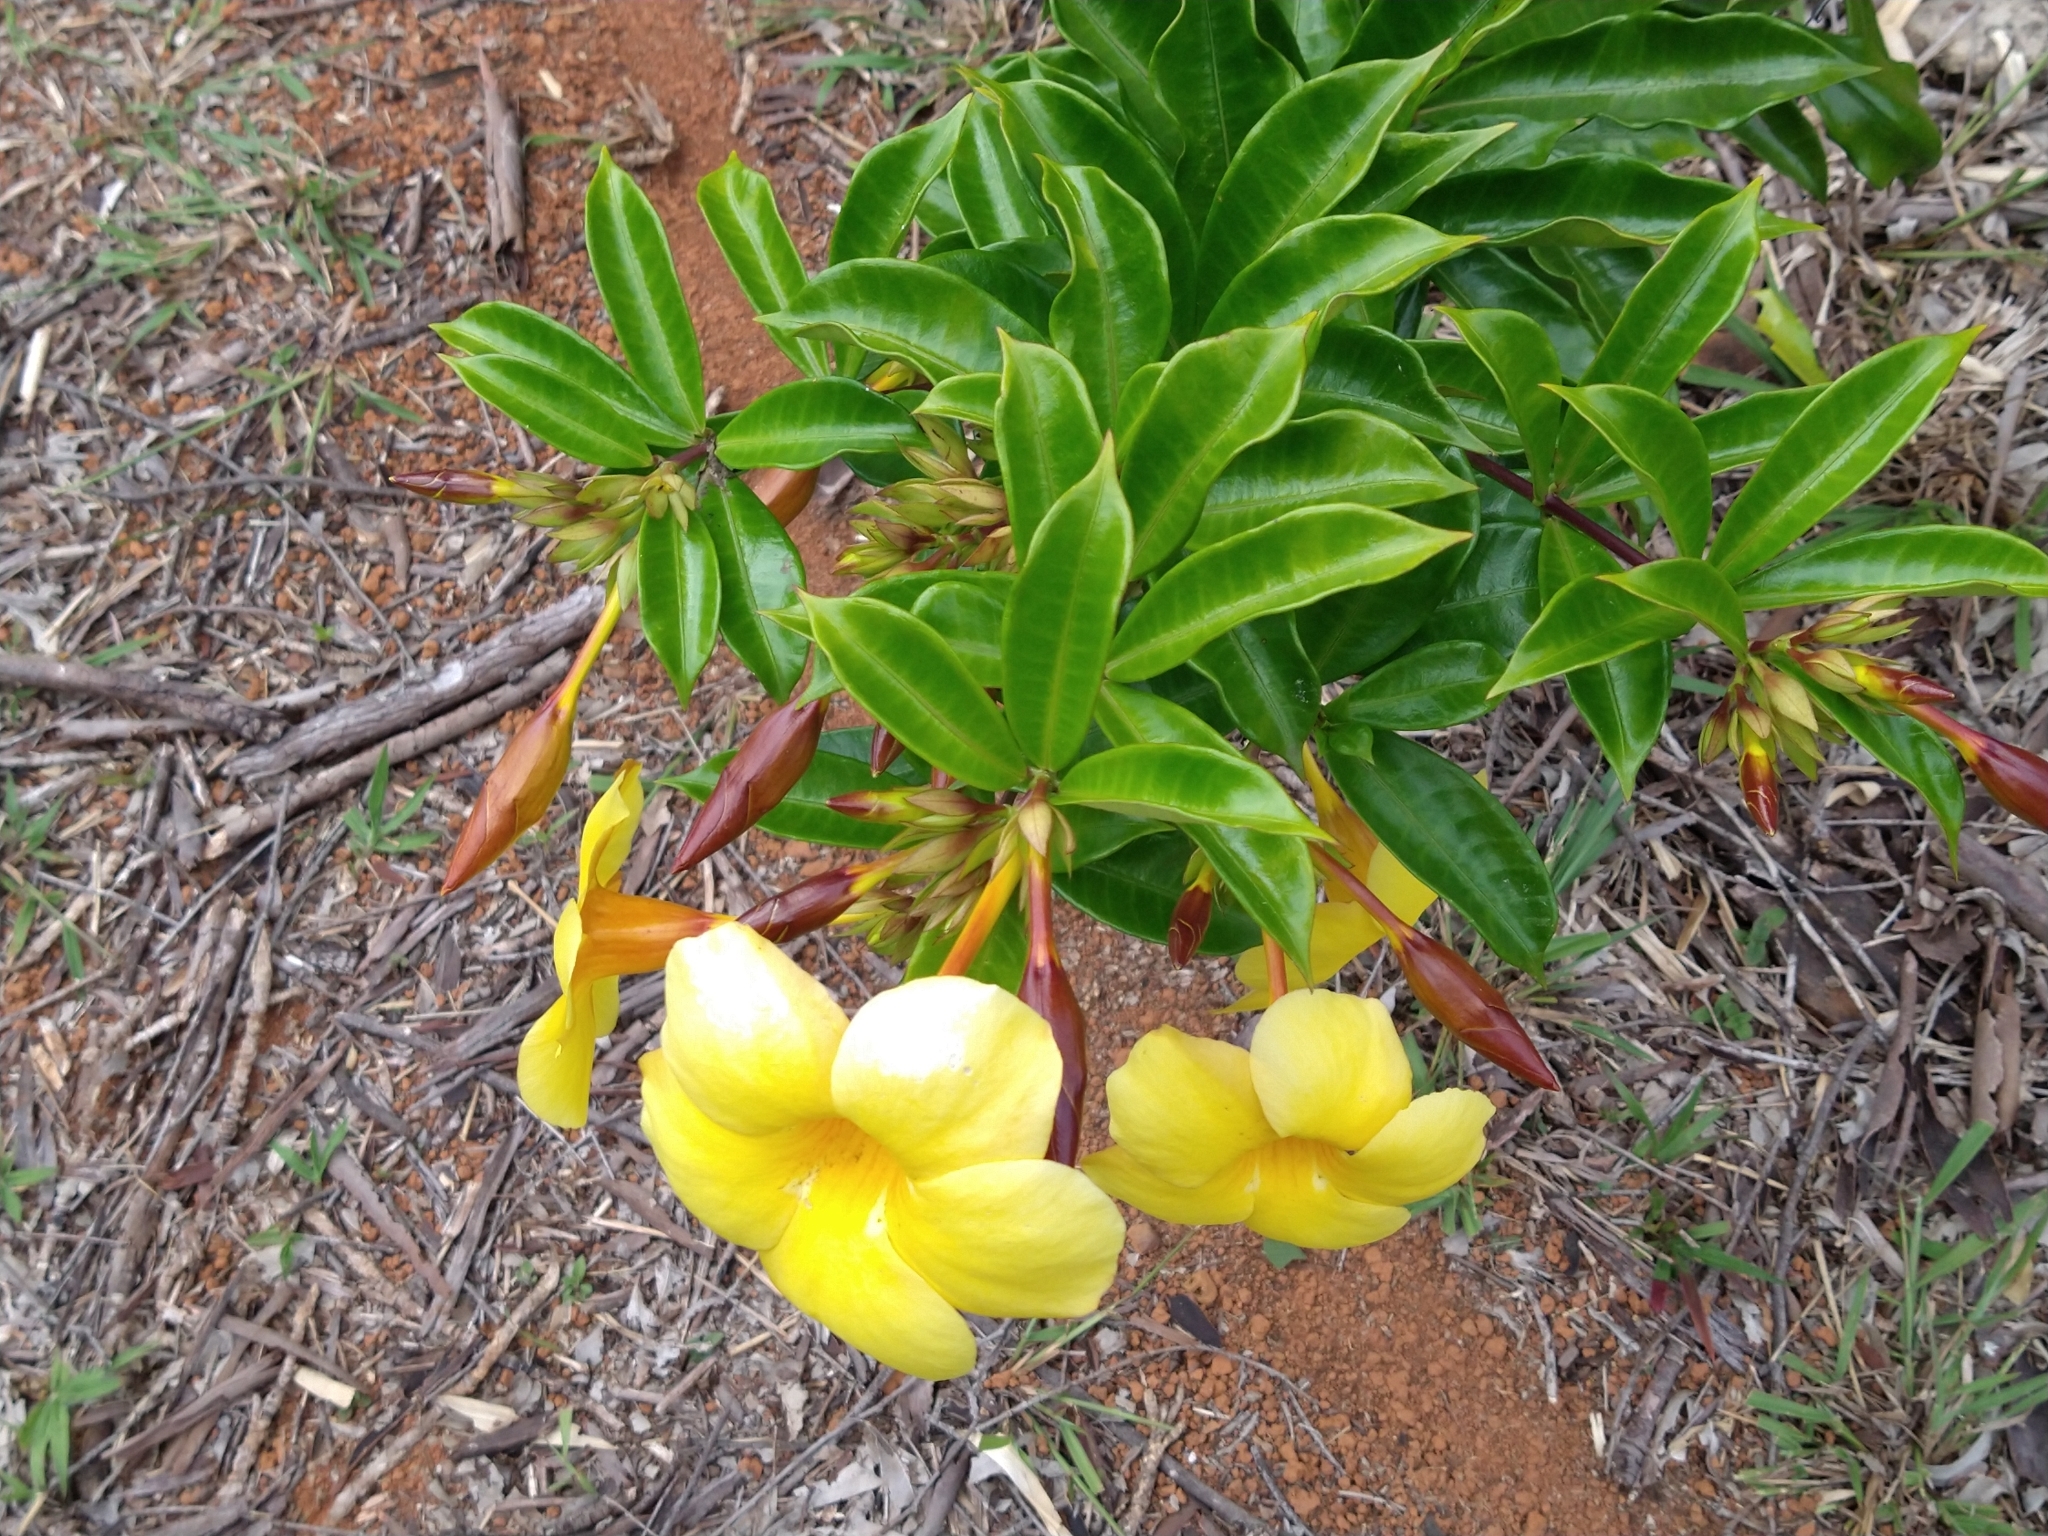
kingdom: Plantae
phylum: Tracheophyta
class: Magnoliopsida
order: Gentianales
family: Apocynaceae
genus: Allamanda
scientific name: Allamanda cathartica
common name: Golden trumpet
